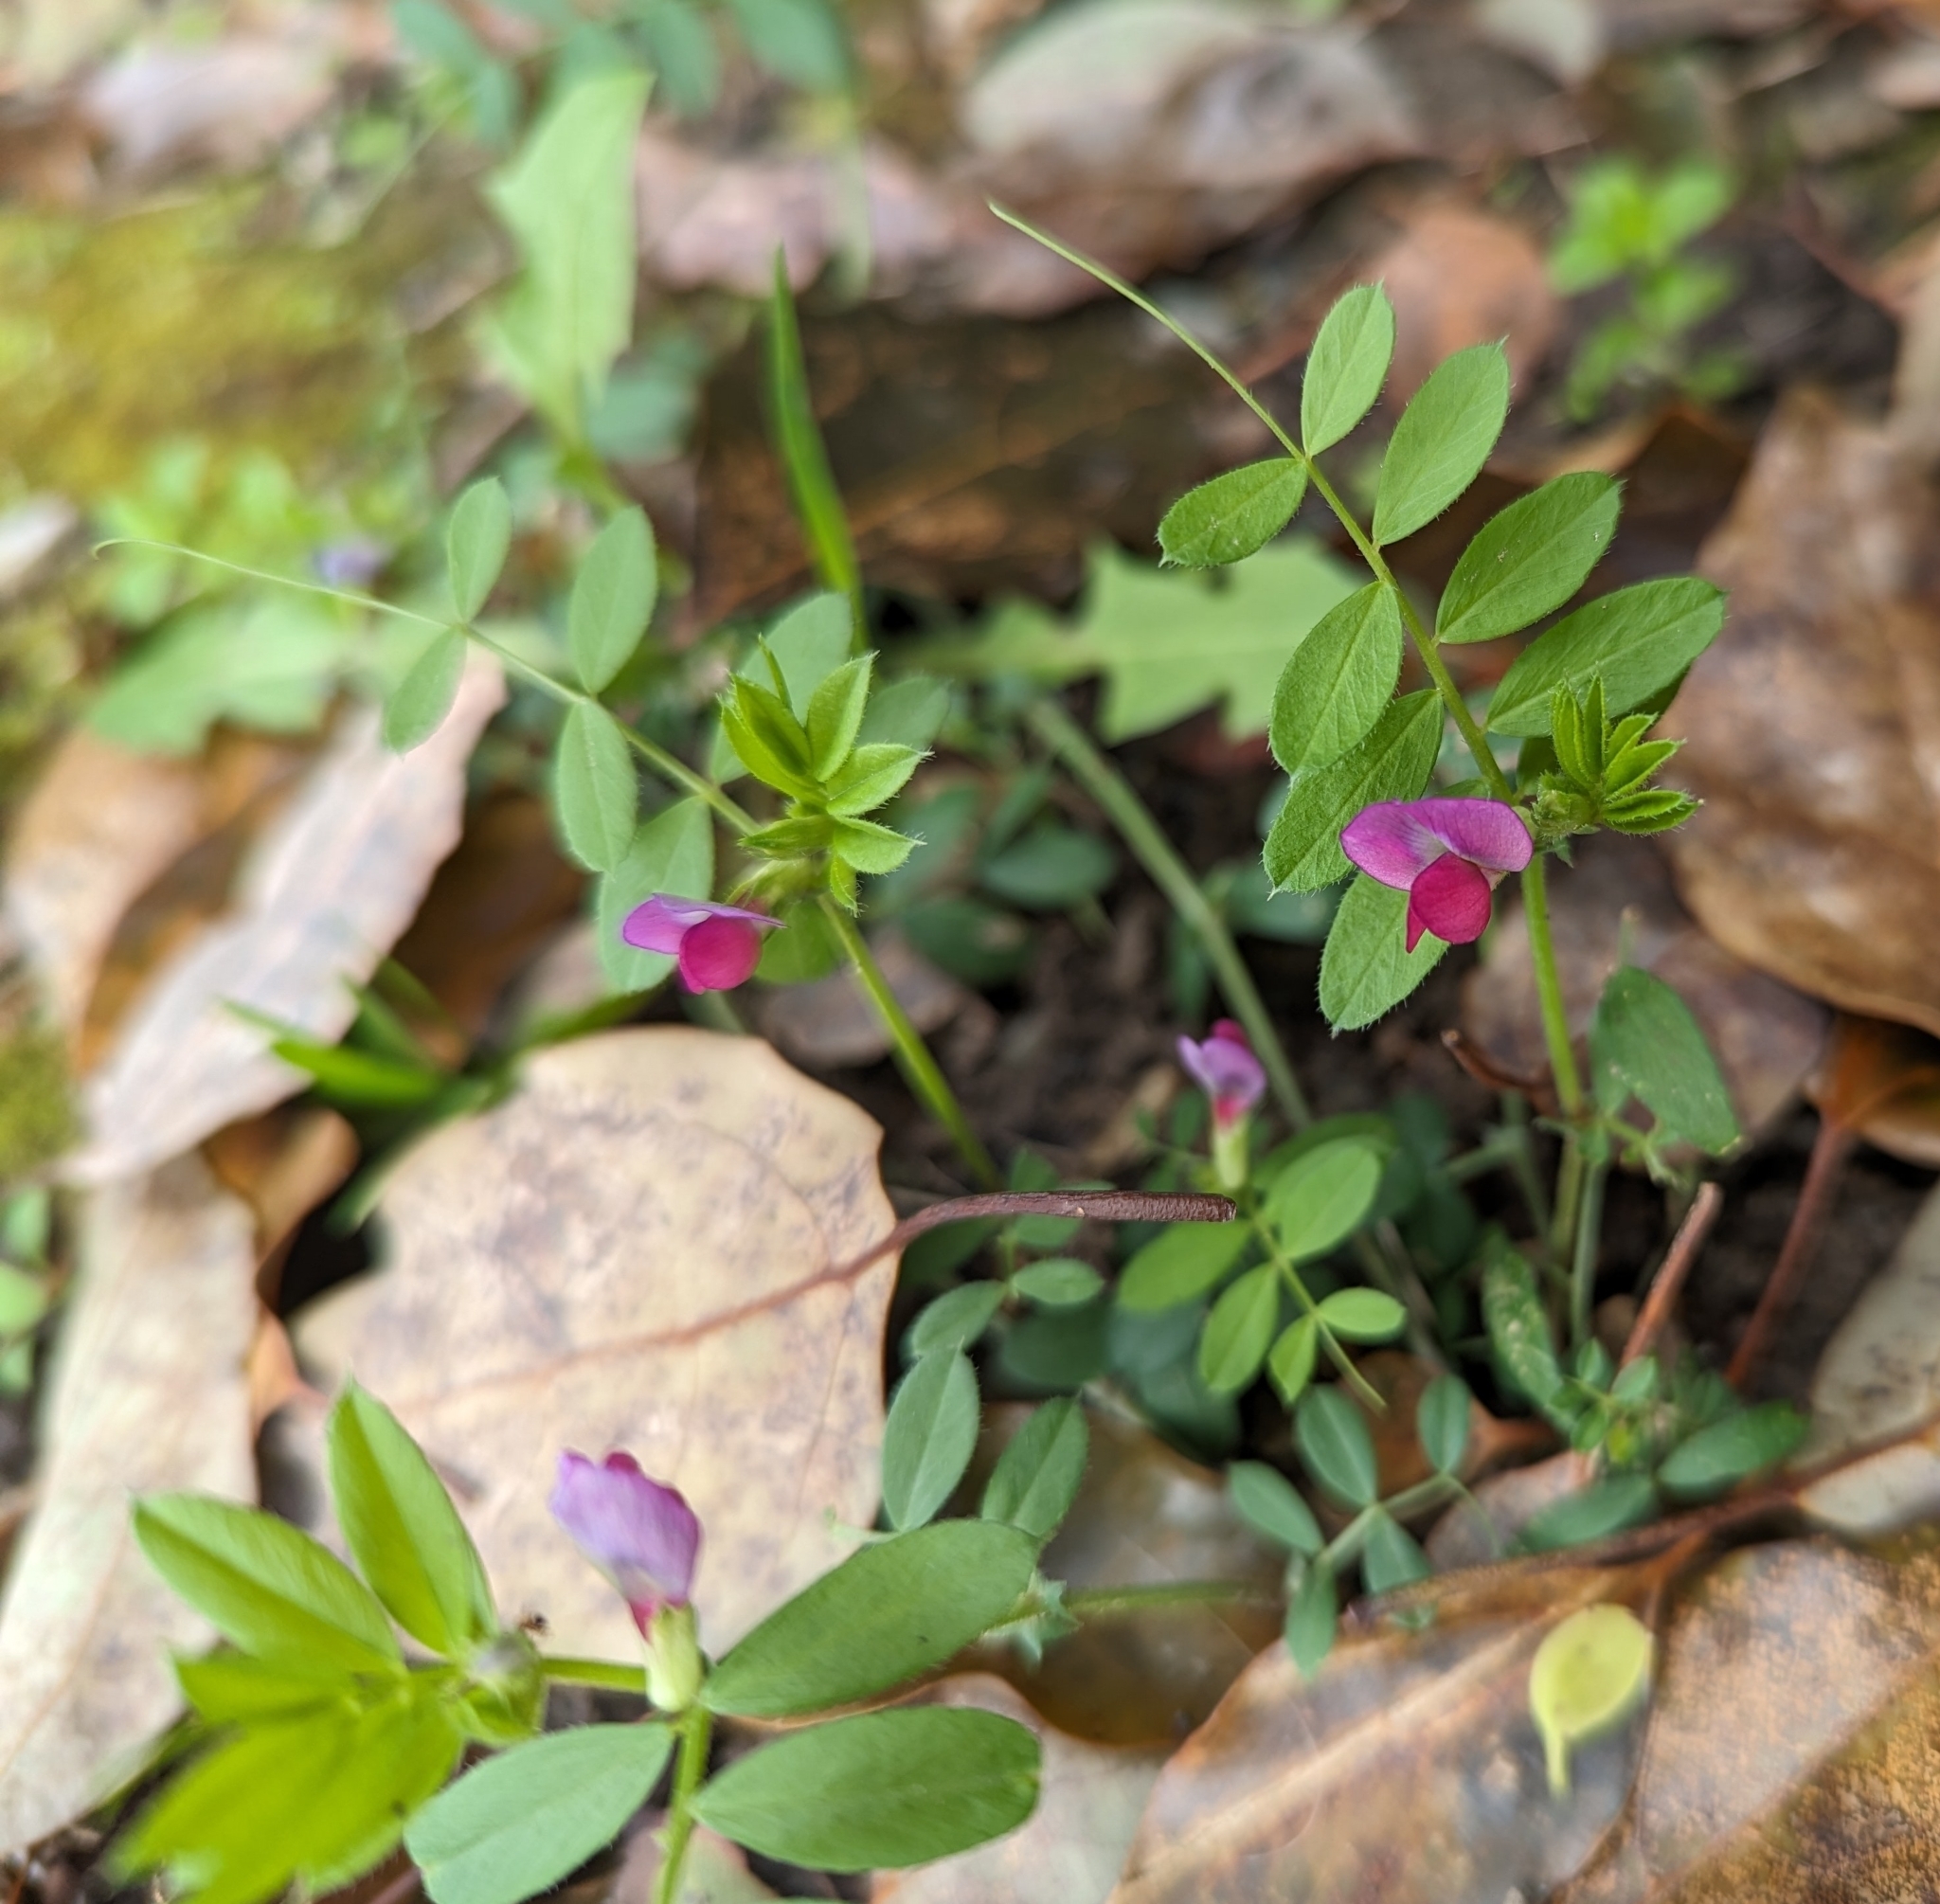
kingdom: Plantae
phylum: Tracheophyta
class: Magnoliopsida
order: Fabales
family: Fabaceae
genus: Vicia
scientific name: Vicia sativa
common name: Garden vetch
